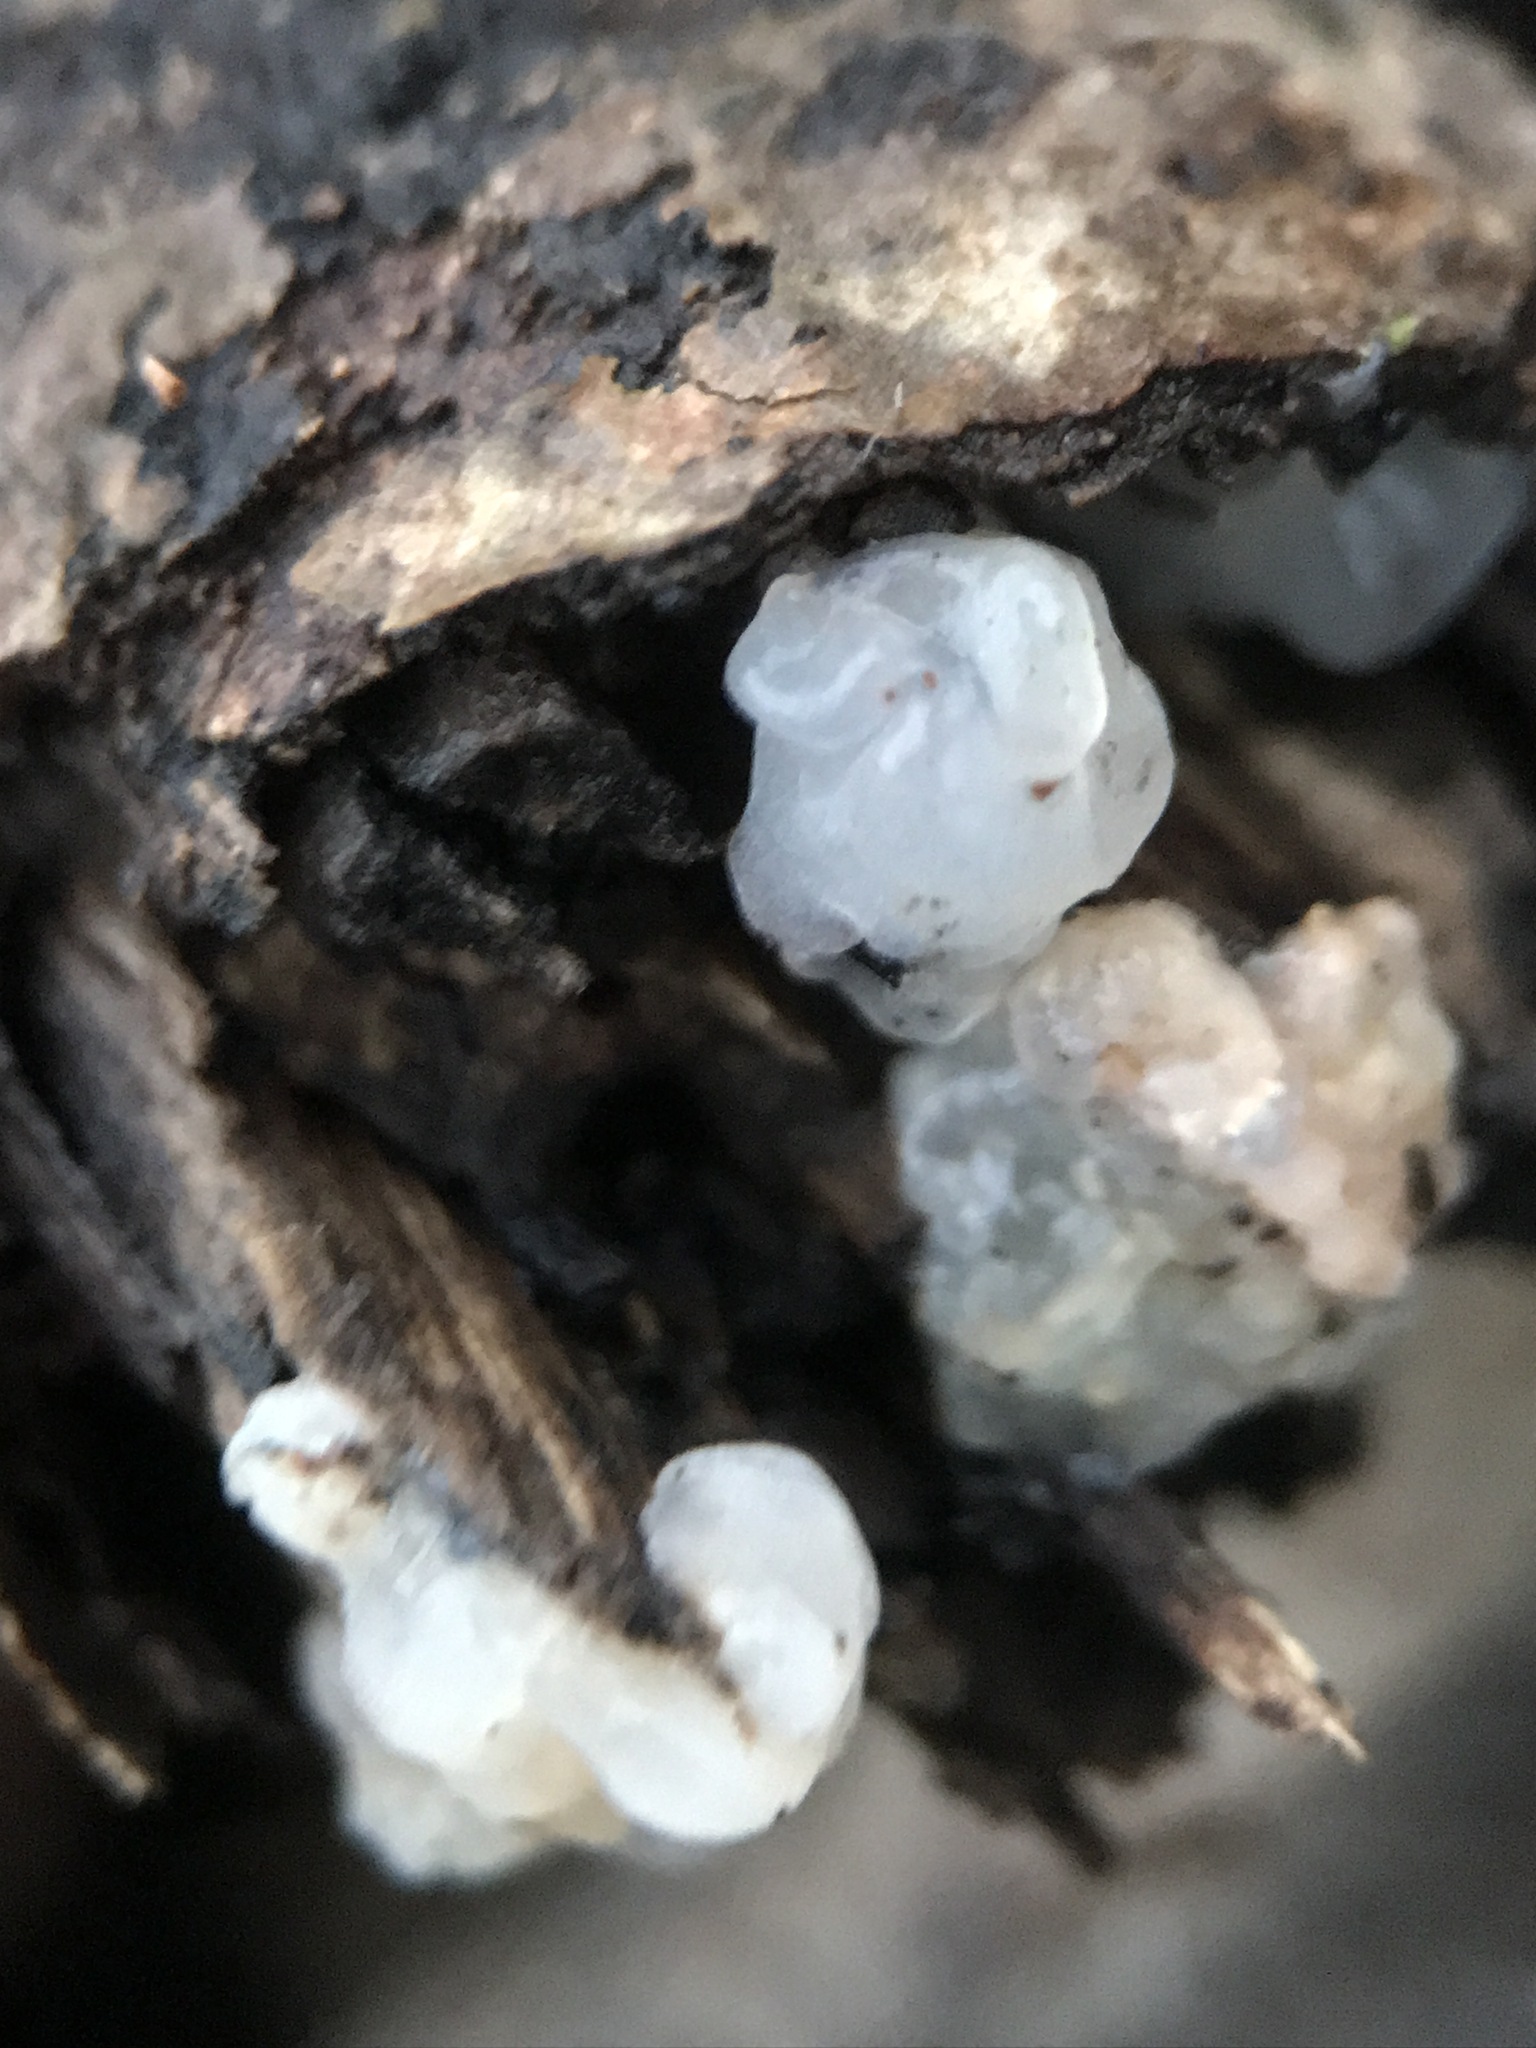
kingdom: Fungi
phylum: Basidiomycota
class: Agaricomycetes
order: Auriculariales
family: Hyaloriaceae
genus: Myxarium
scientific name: Myxarium nucleatum
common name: Crystal brain fungus
